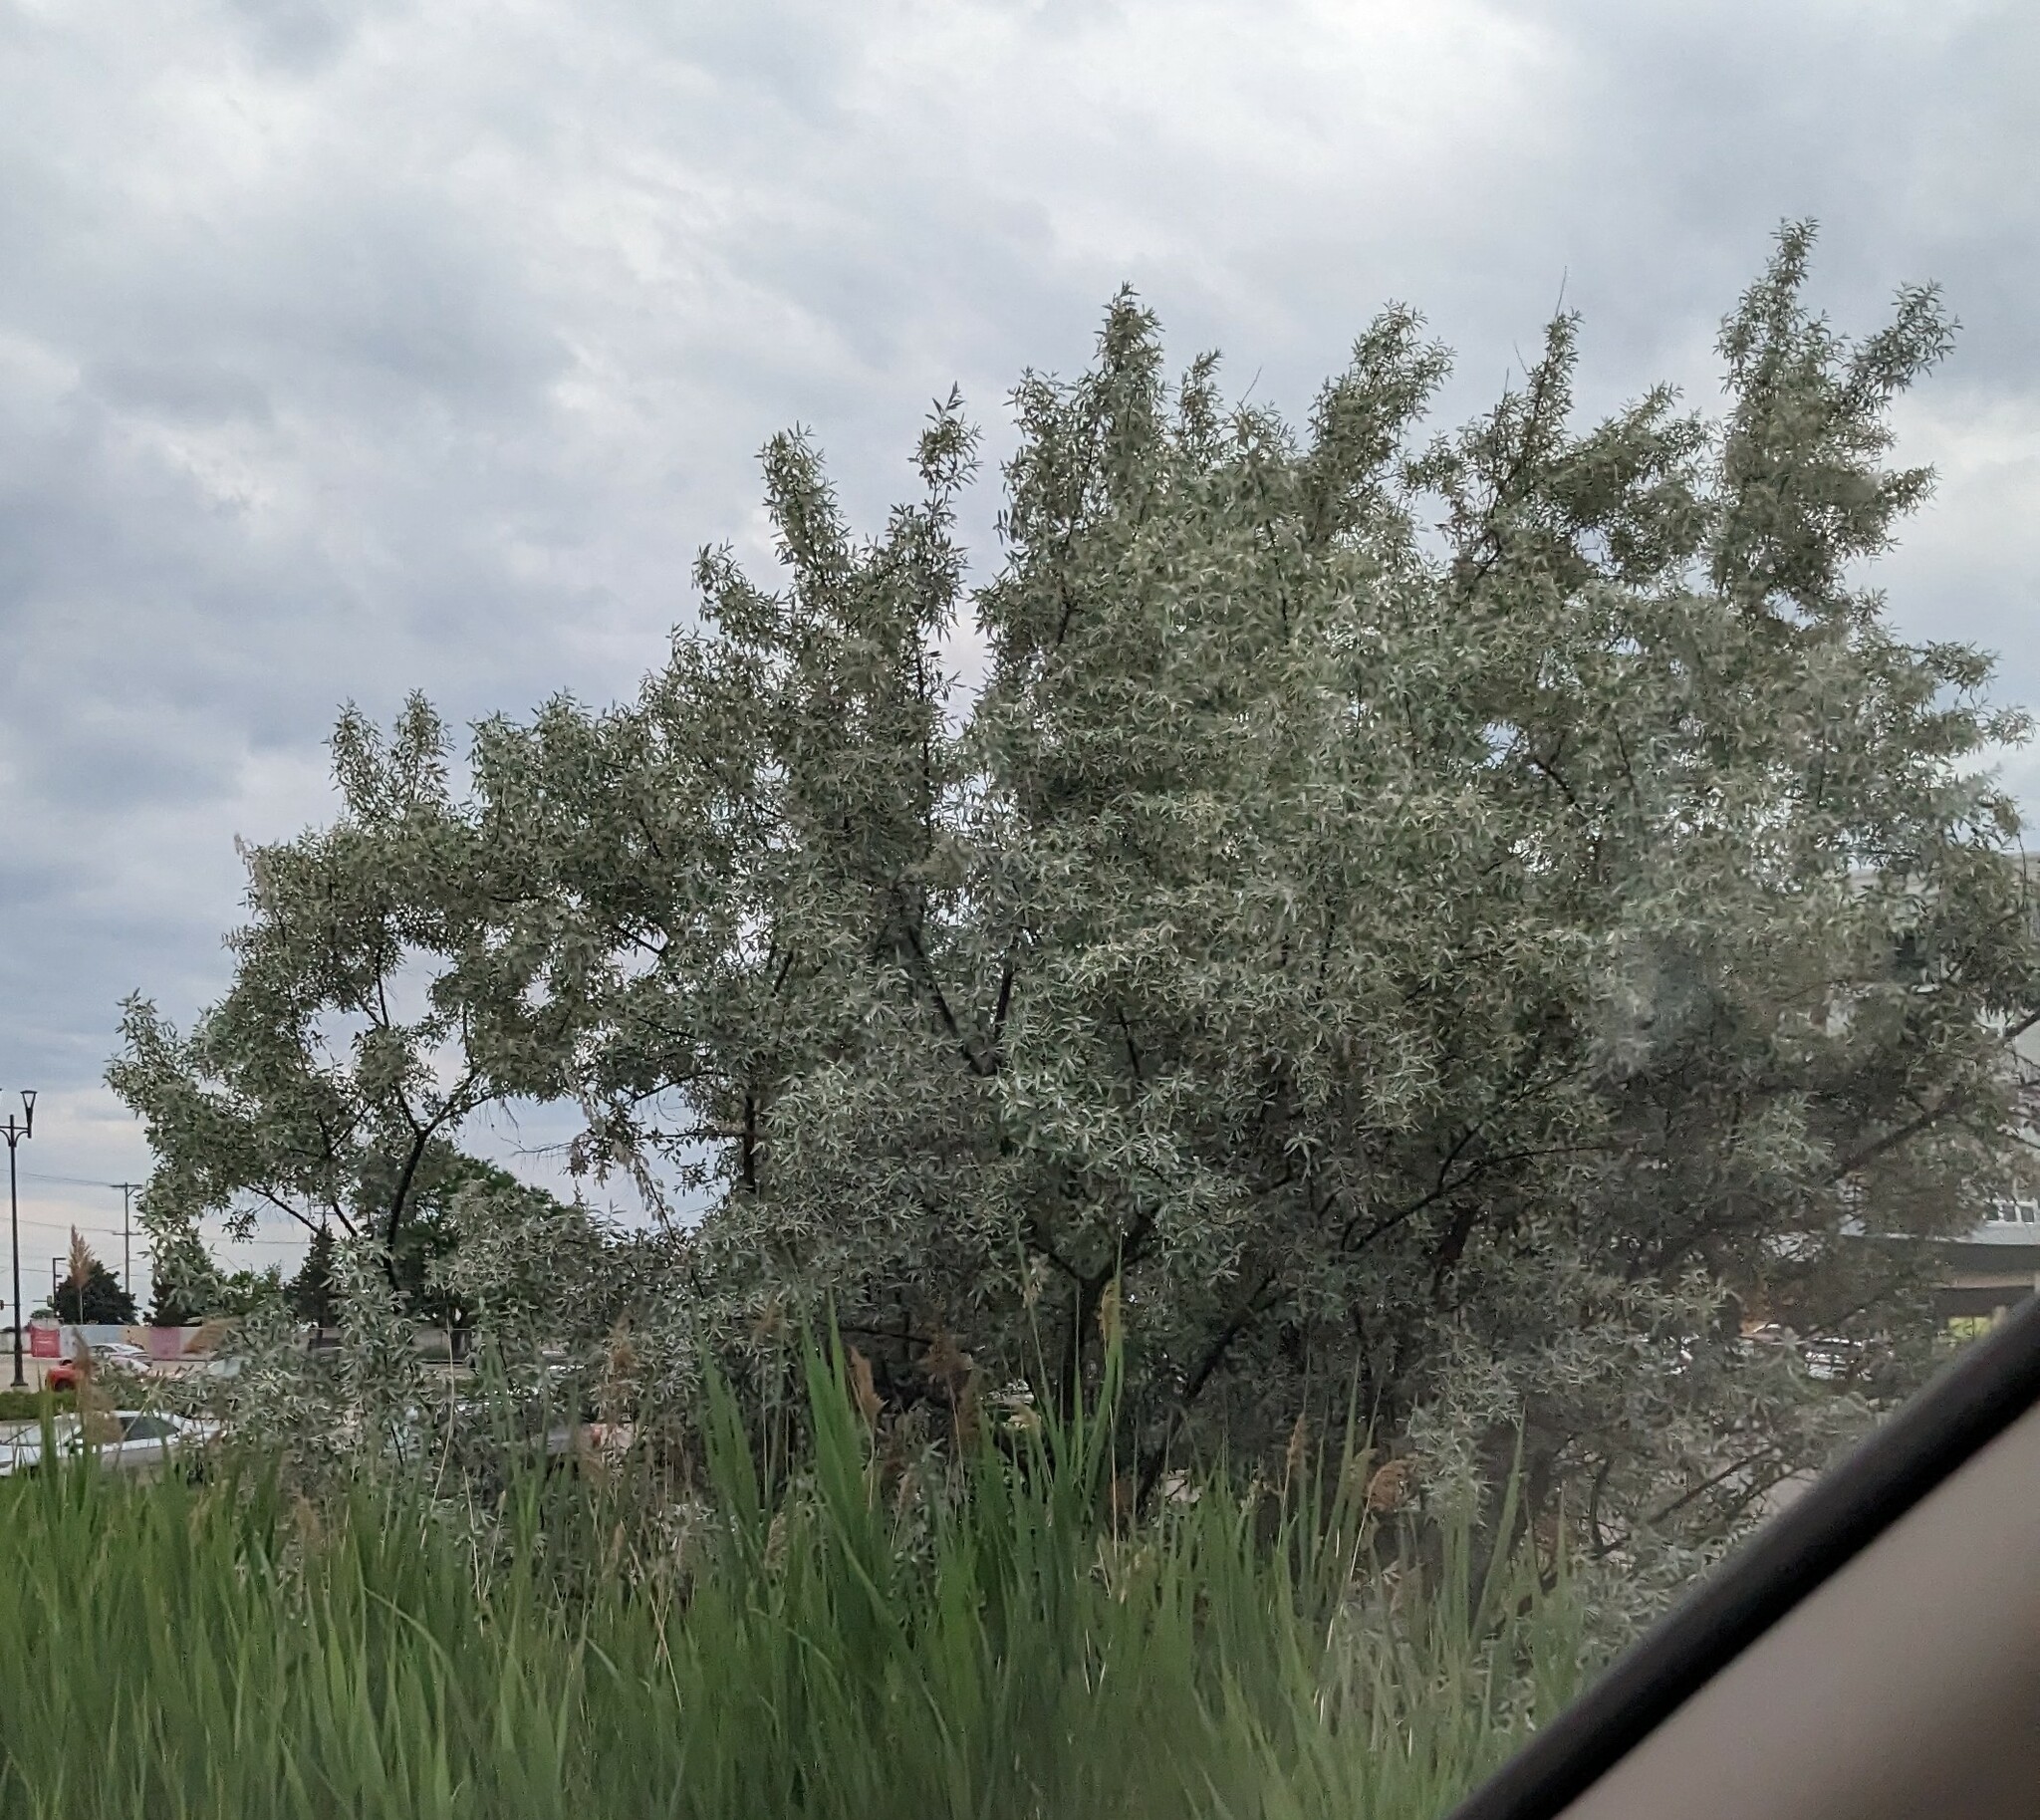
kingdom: Plantae
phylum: Tracheophyta
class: Magnoliopsida
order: Rosales
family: Elaeagnaceae
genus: Elaeagnus
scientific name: Elaeagnus angustifolia
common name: Russian olive
